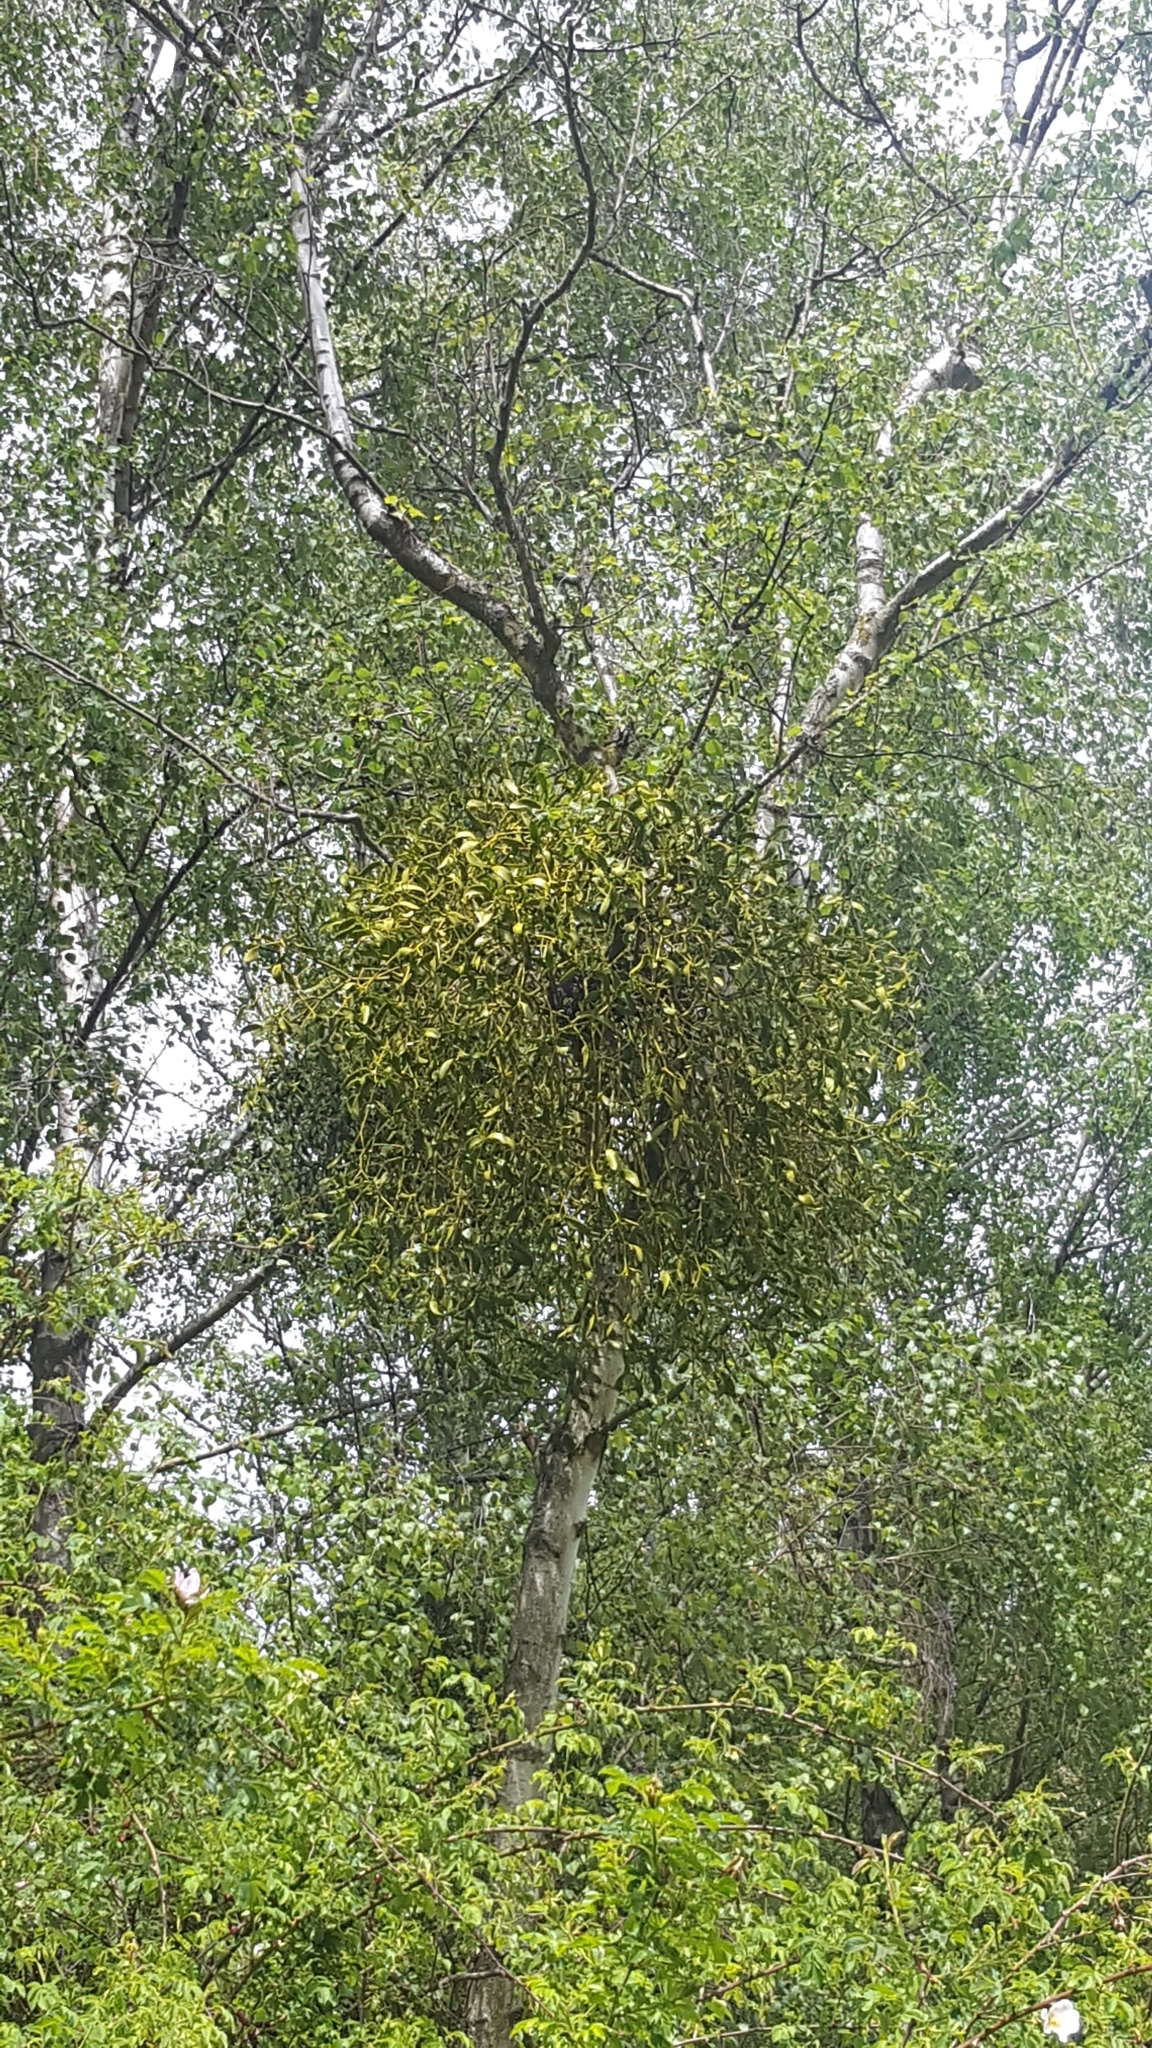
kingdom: Plantae
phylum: Tracheophyta
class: Magnoliopsida
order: Santalales
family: Viscaceae
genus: Viscum
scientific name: Viscum album
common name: Mistletoe
